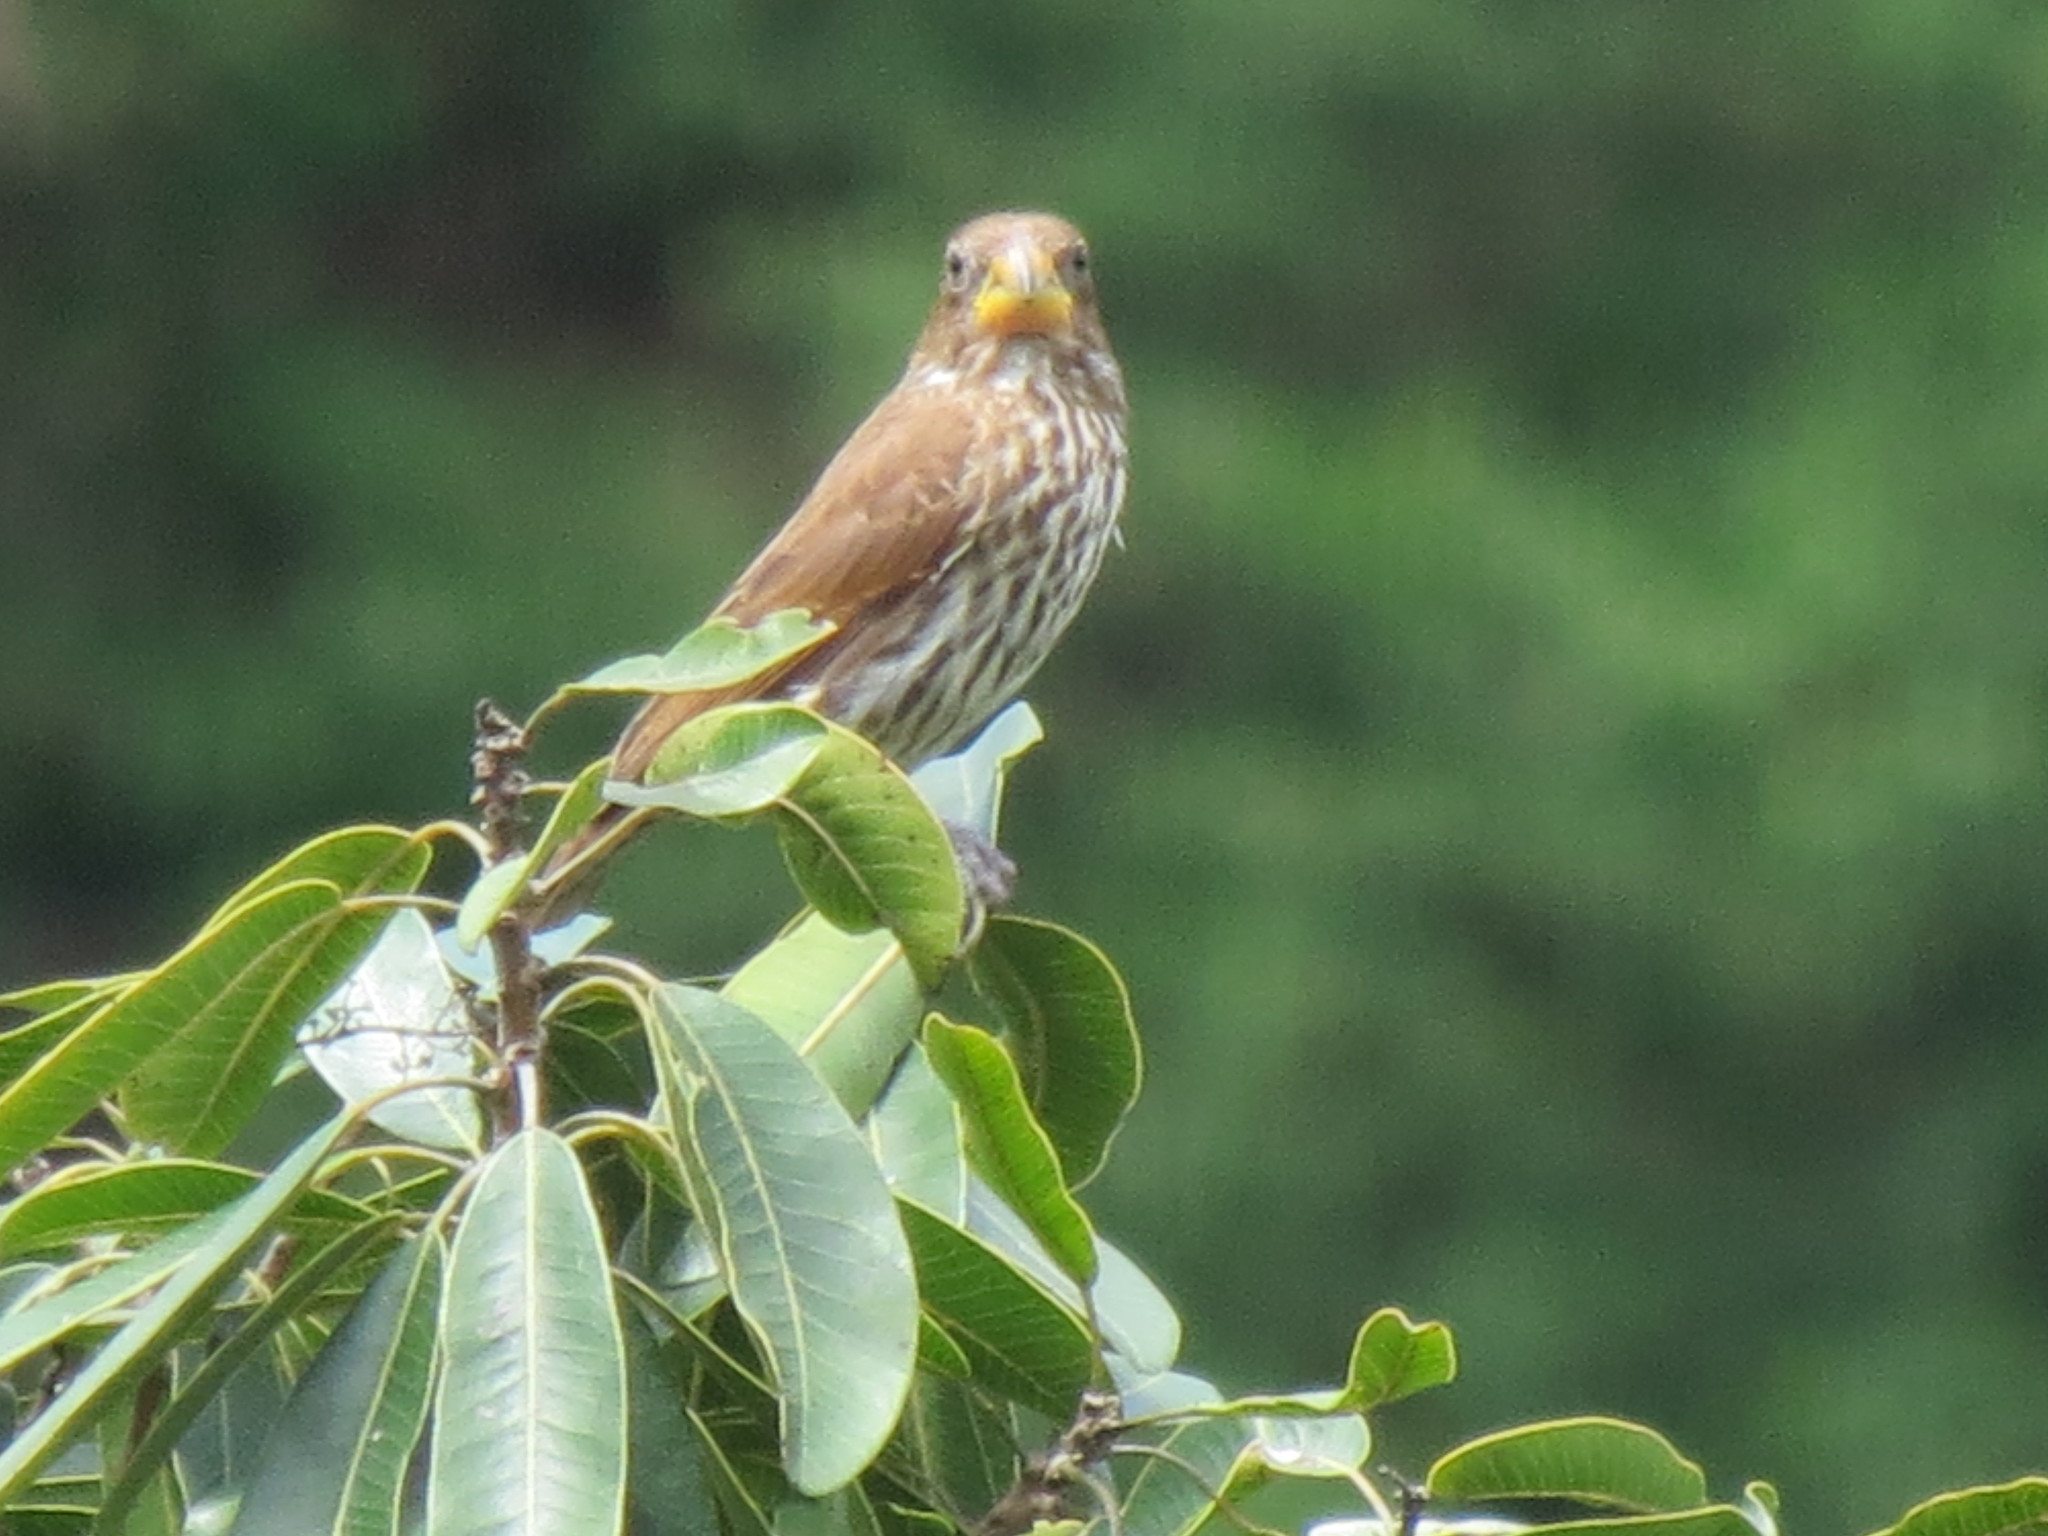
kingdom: Animalia
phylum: Chordata
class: Aves
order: Passeriformes
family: Ploceidae
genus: Amblyospiza
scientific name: Amblyospiza albifrons
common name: Thick-billed weaver
